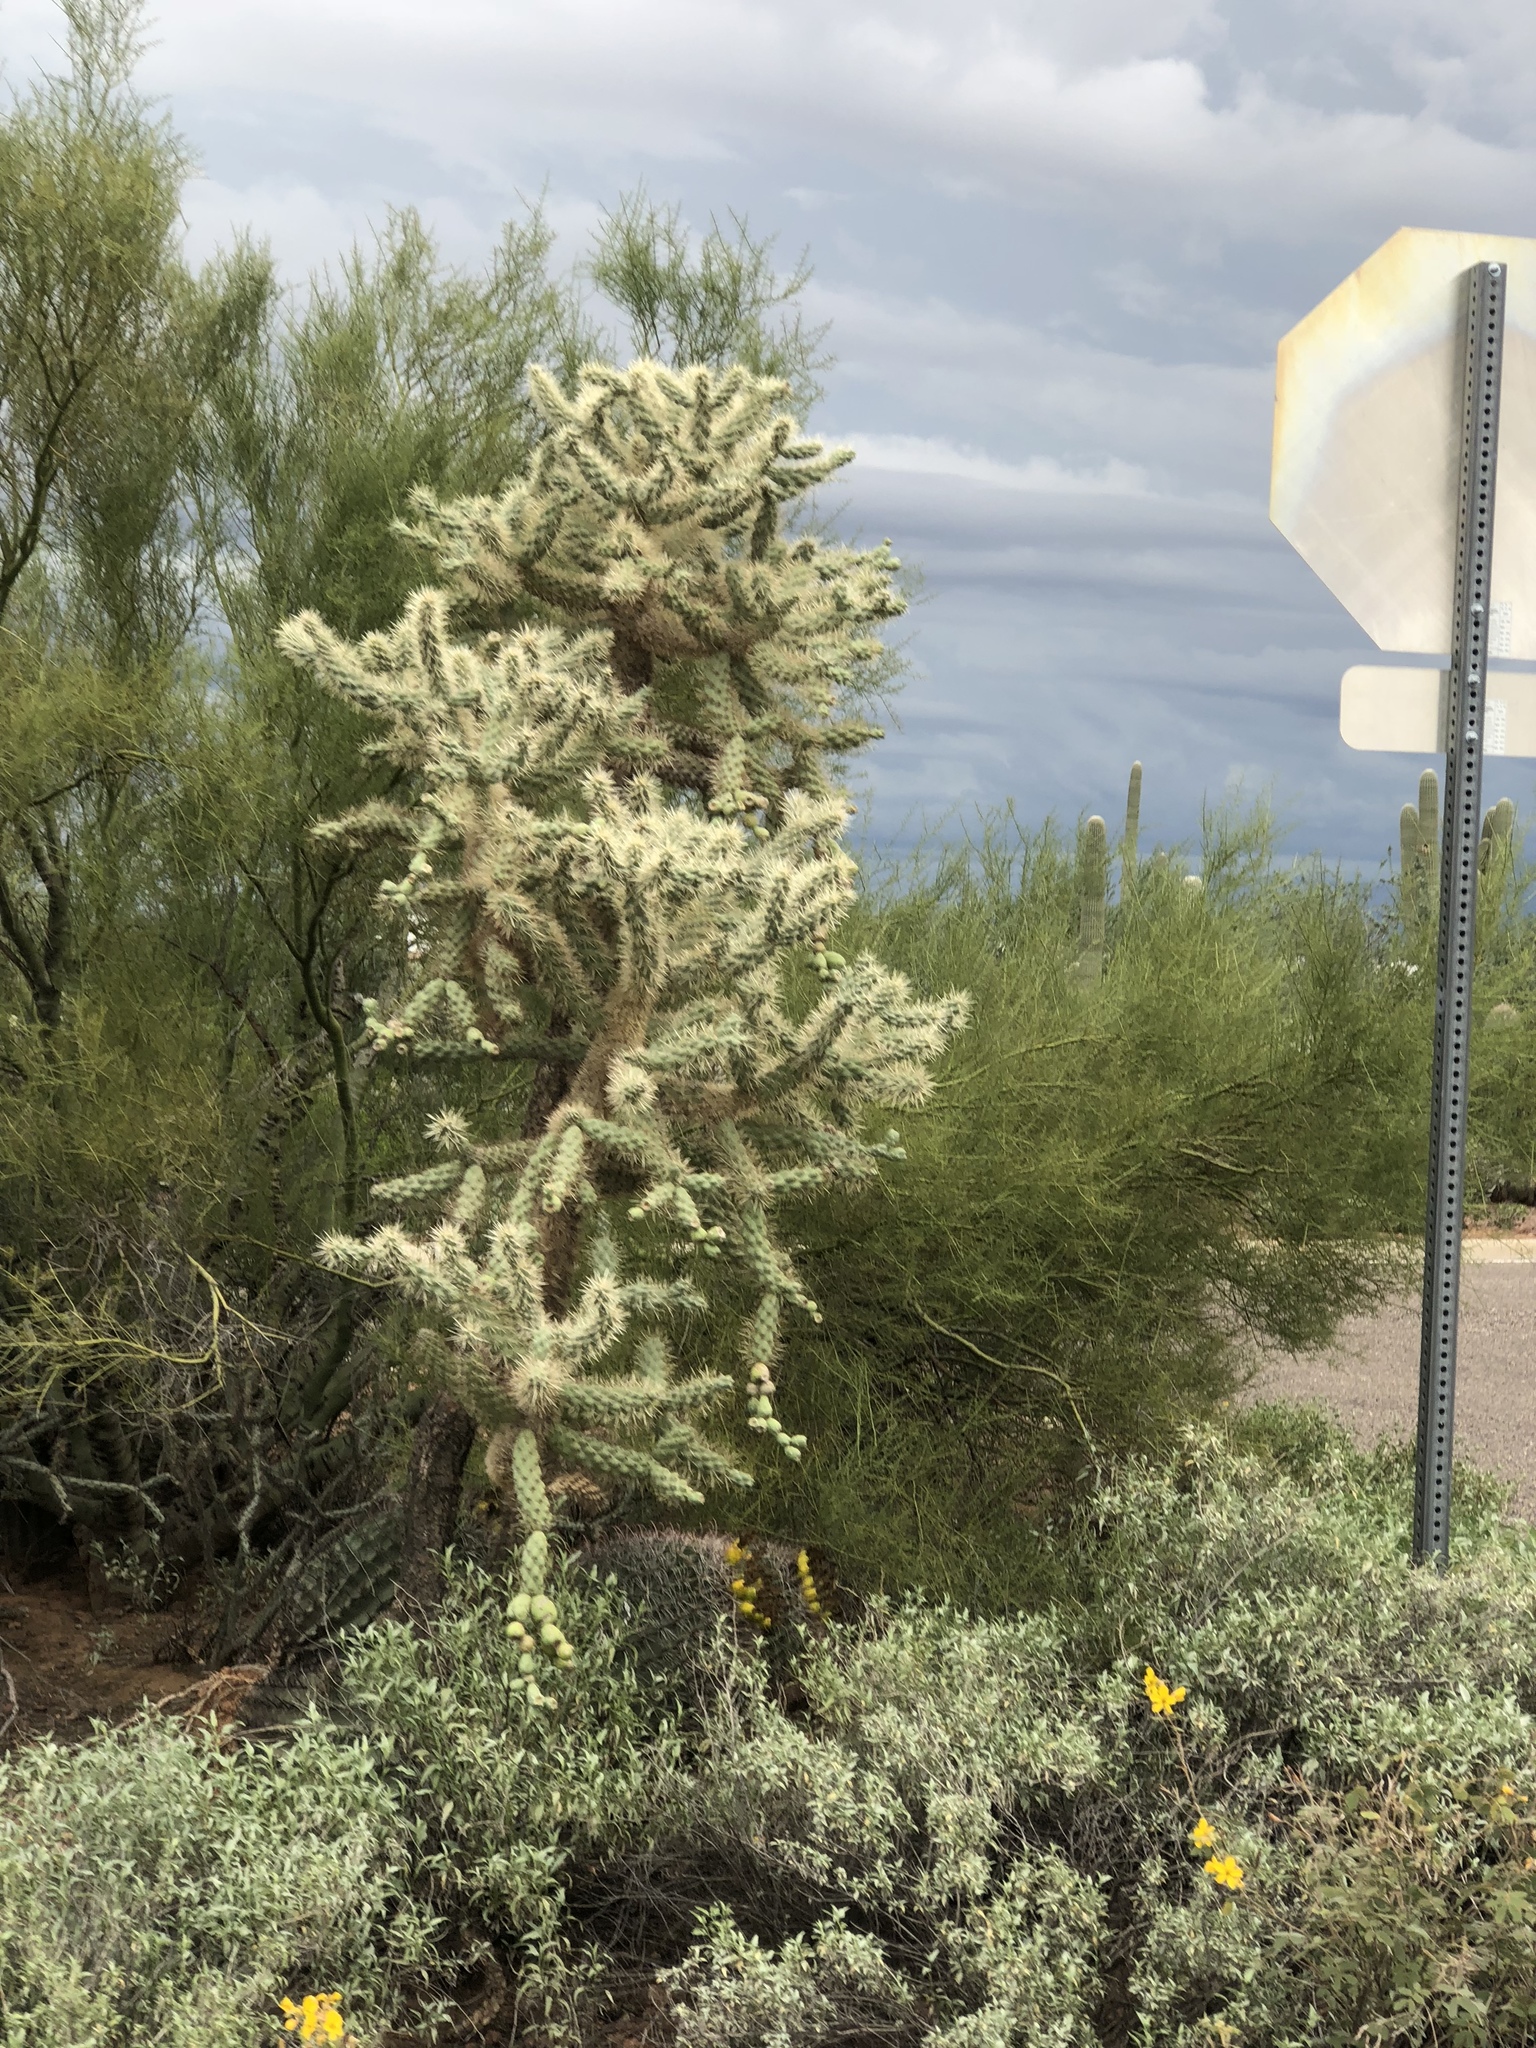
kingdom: Plantae
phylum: Tracheophyta
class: Magnoliopsida
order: Caryophyllales
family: Cactaceae
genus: Cylindropuntia
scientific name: Cylindropuntia fulgida
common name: Jumping cholla
